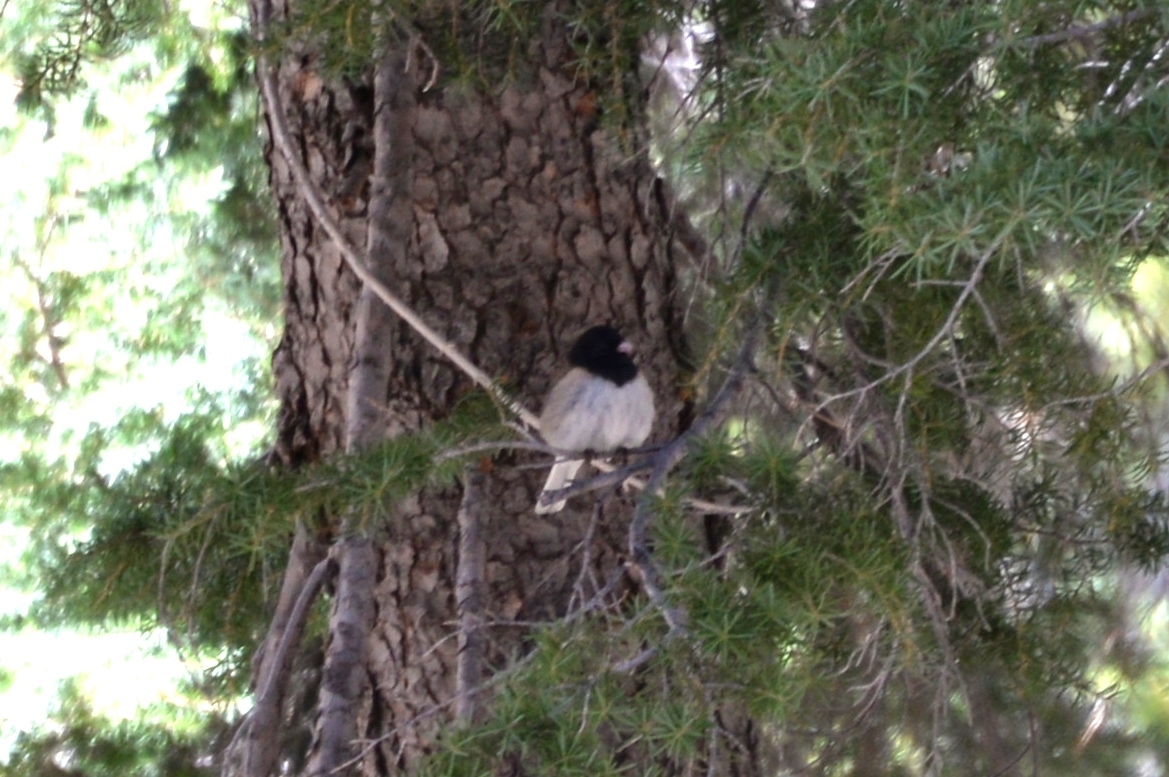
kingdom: Animalia
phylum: Chordata
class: Aves
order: Passeriformes
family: Passerellidae
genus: Junco
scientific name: Junco hyemalis
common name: Dark-eyed junco
